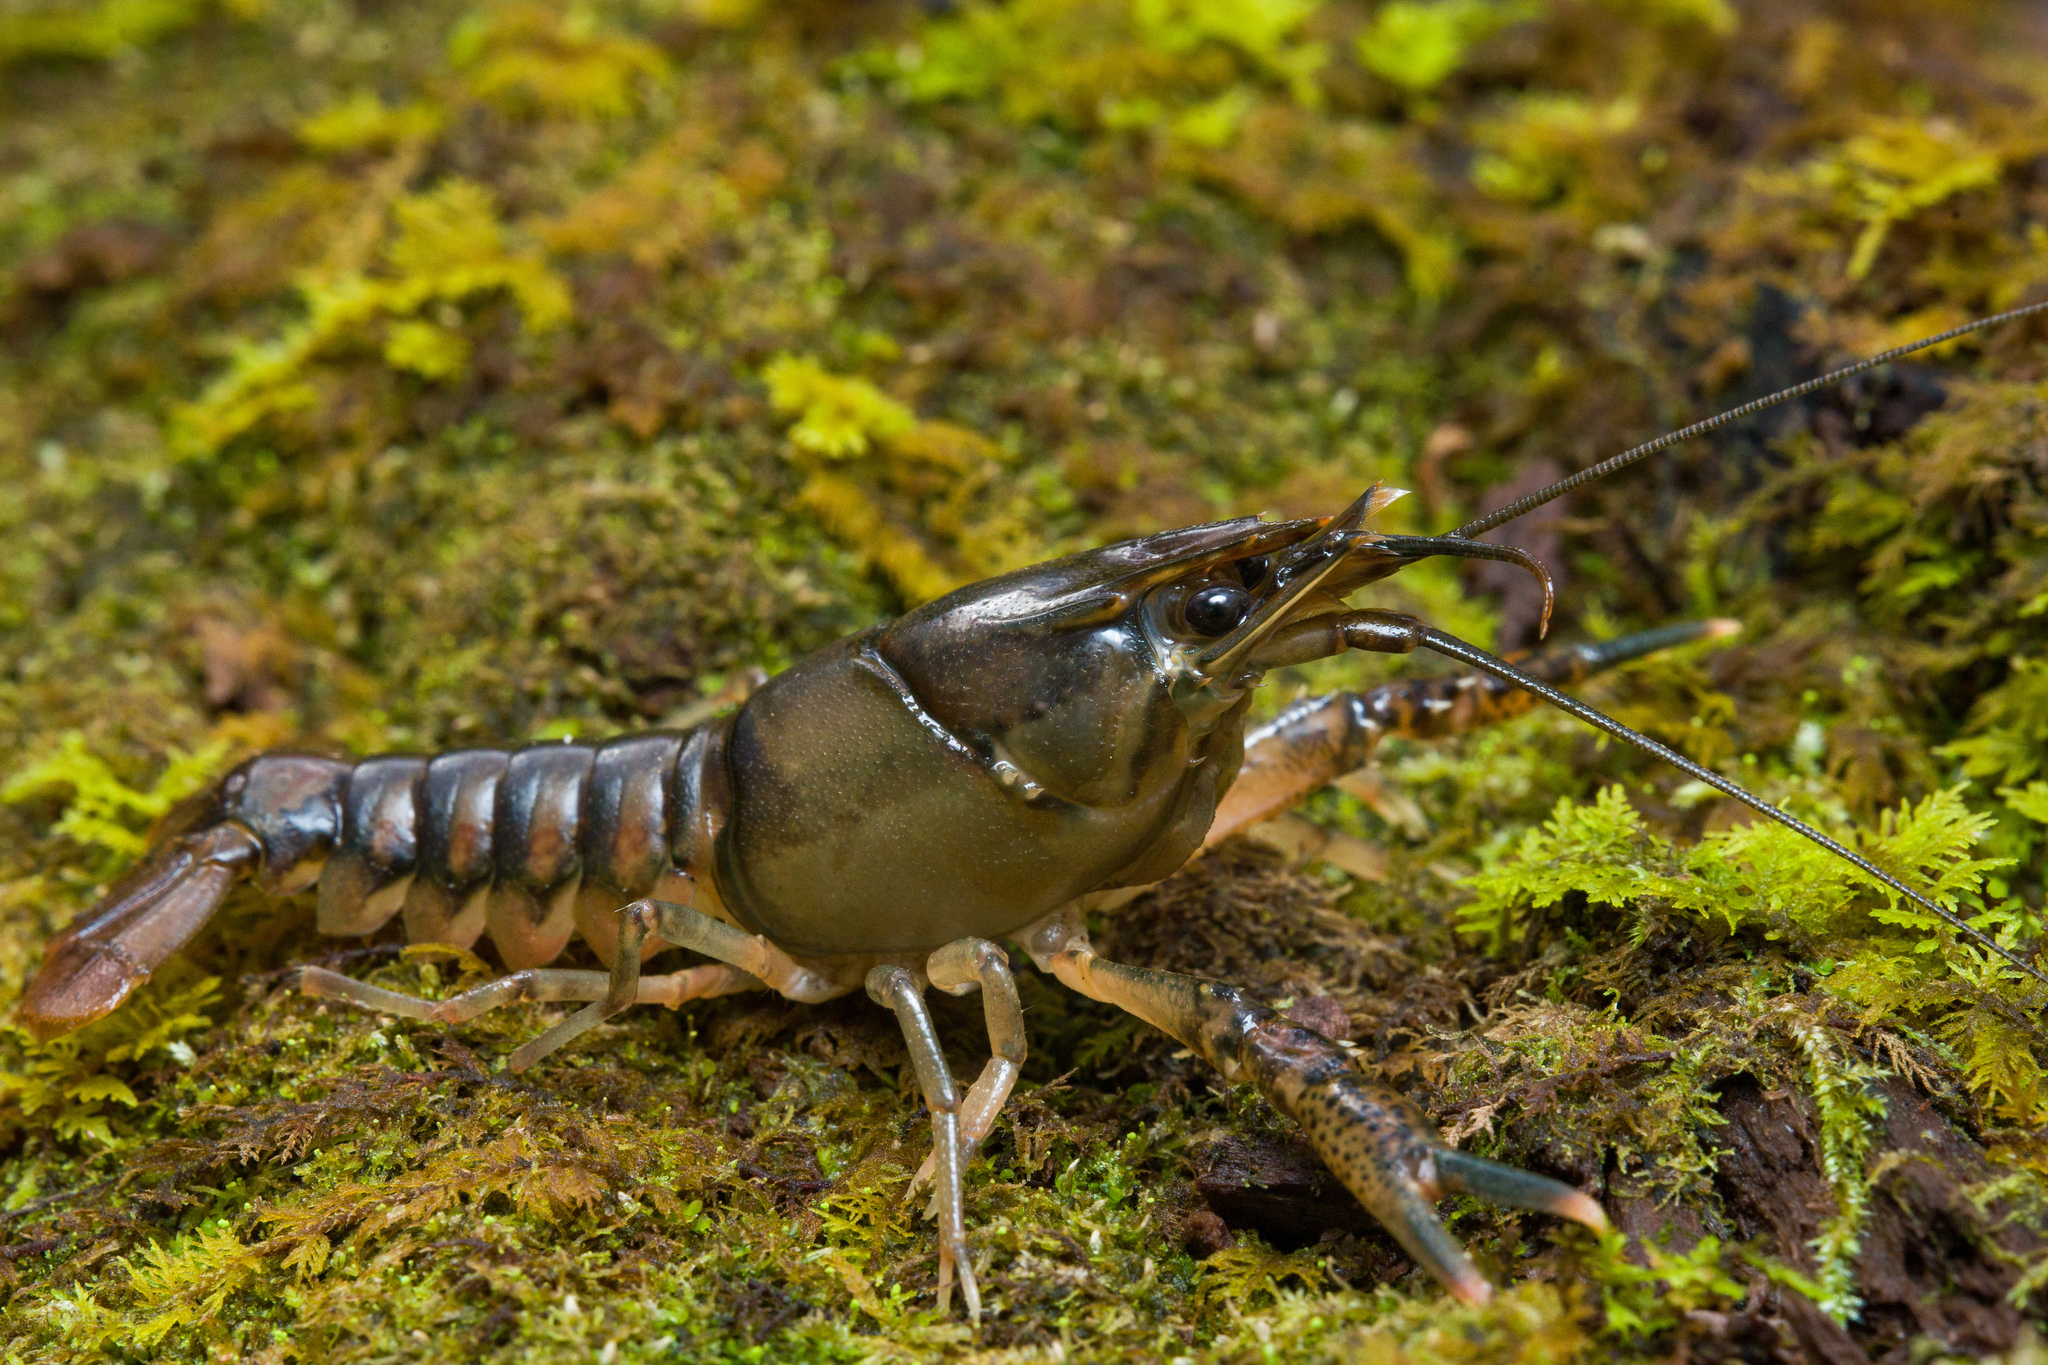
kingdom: Animalia
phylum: Arthropoda
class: Malacostraca
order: Decapoda
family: Cambaridae
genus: Procambarus
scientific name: Procambarus penni
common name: Pearl blackwater crayfish
